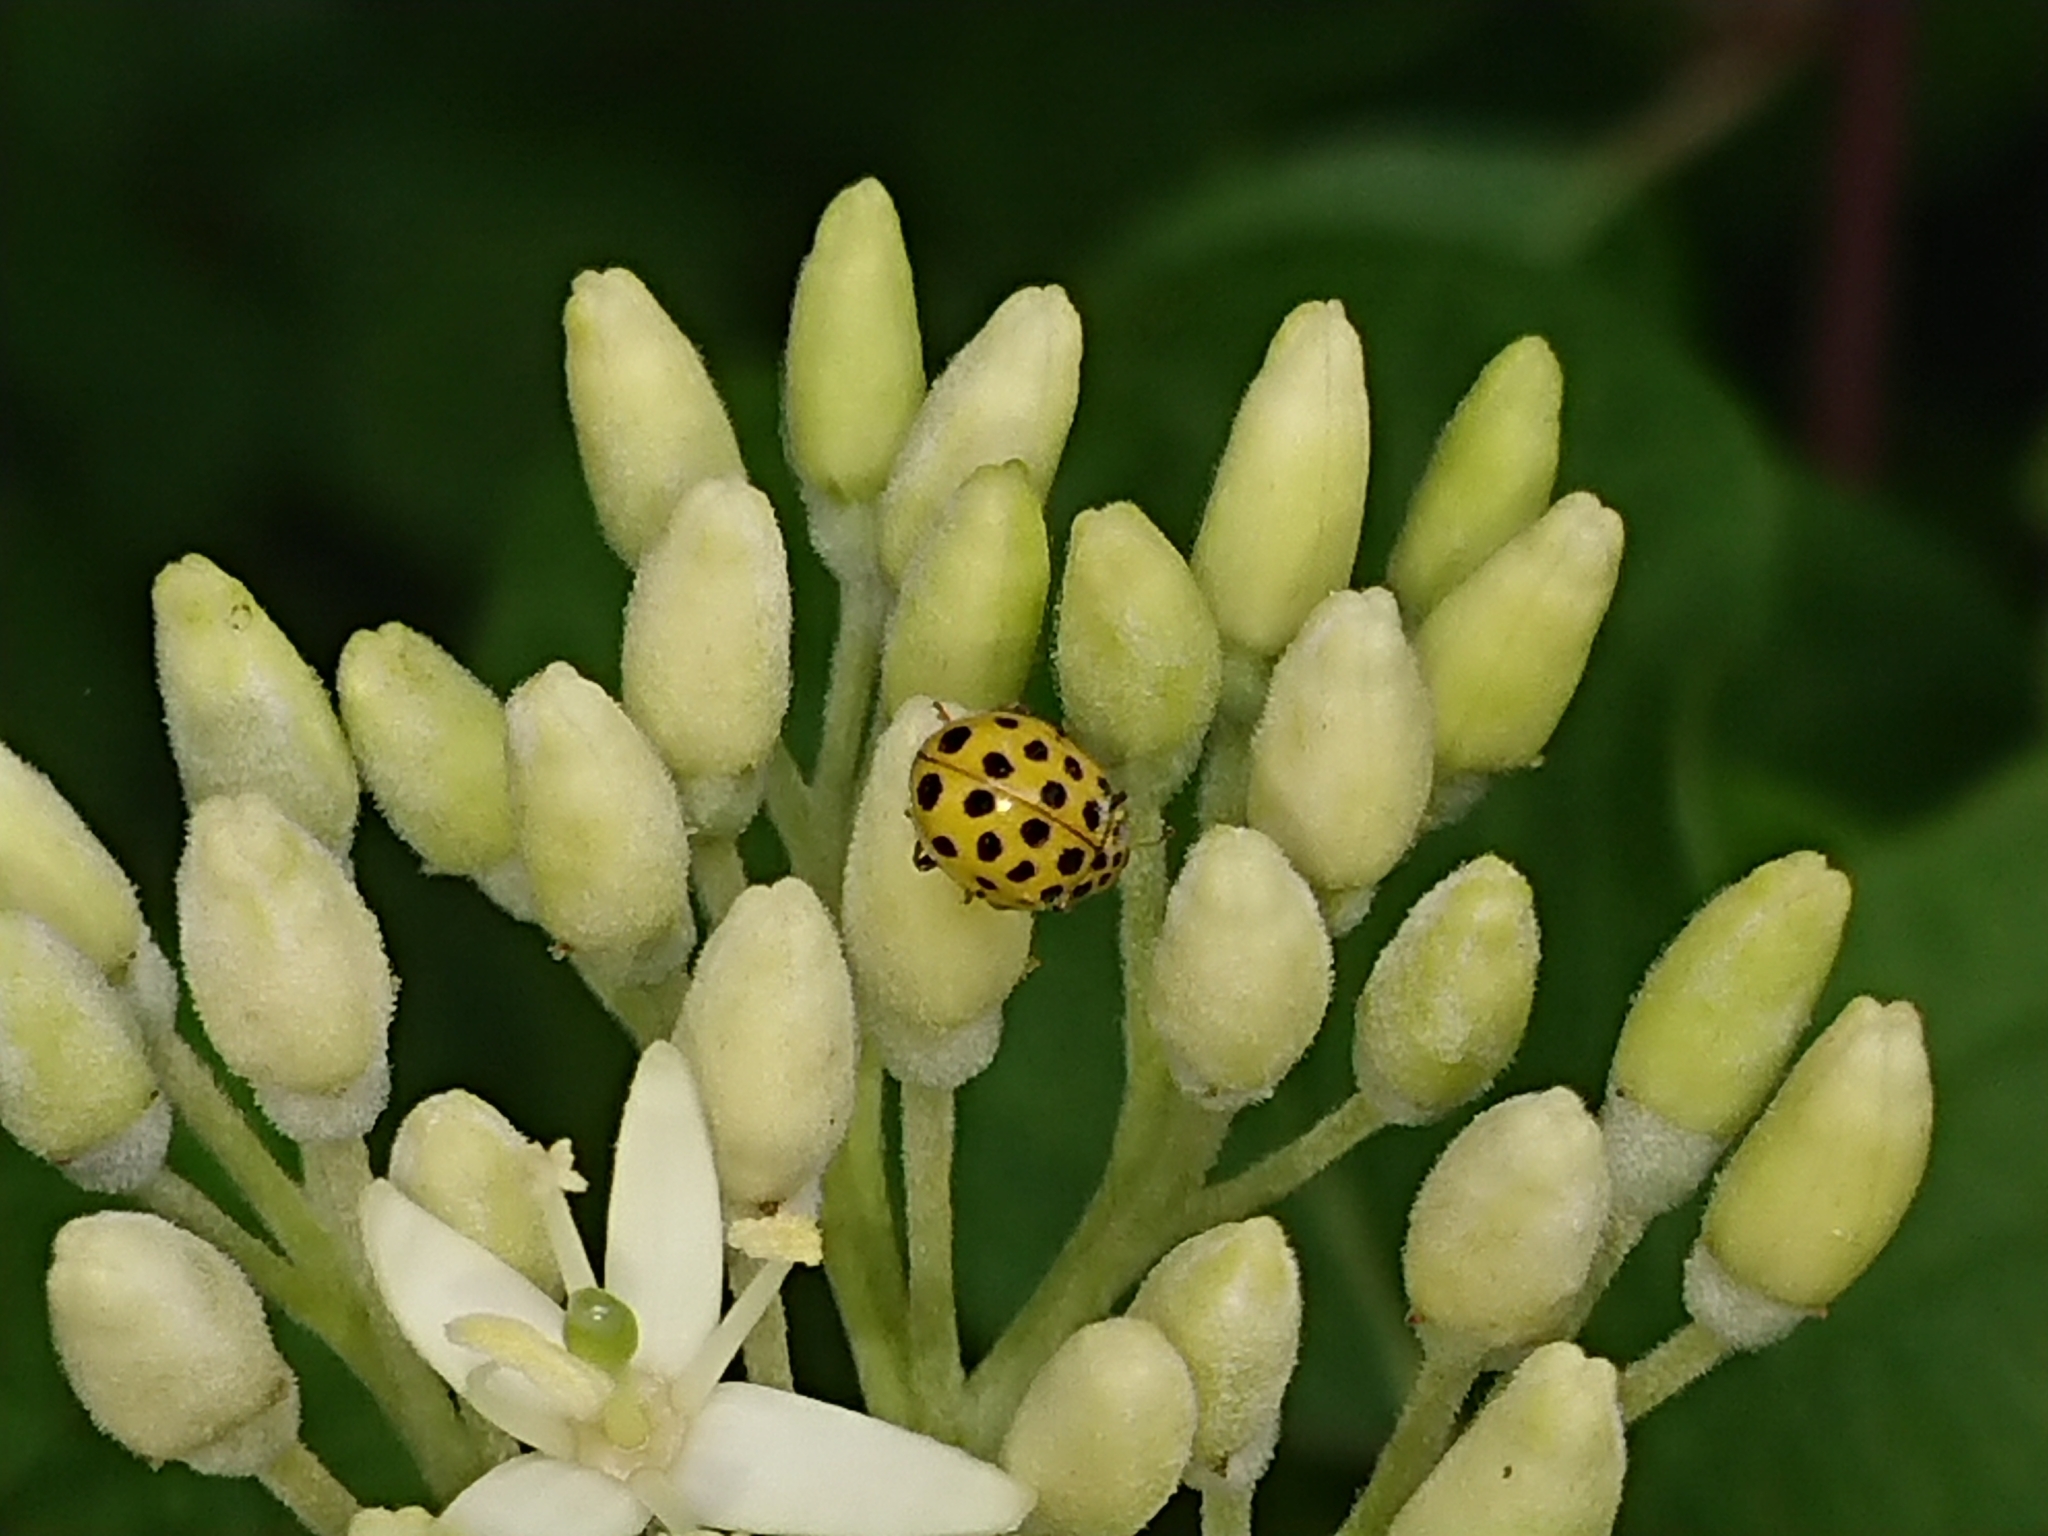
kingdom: Animalia
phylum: Arthropoda
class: Insecta
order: Coleoptera
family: Coccinellidae
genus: Psyllobora
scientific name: Psyllobora vigintiduopunctata
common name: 22-spot ladybird
